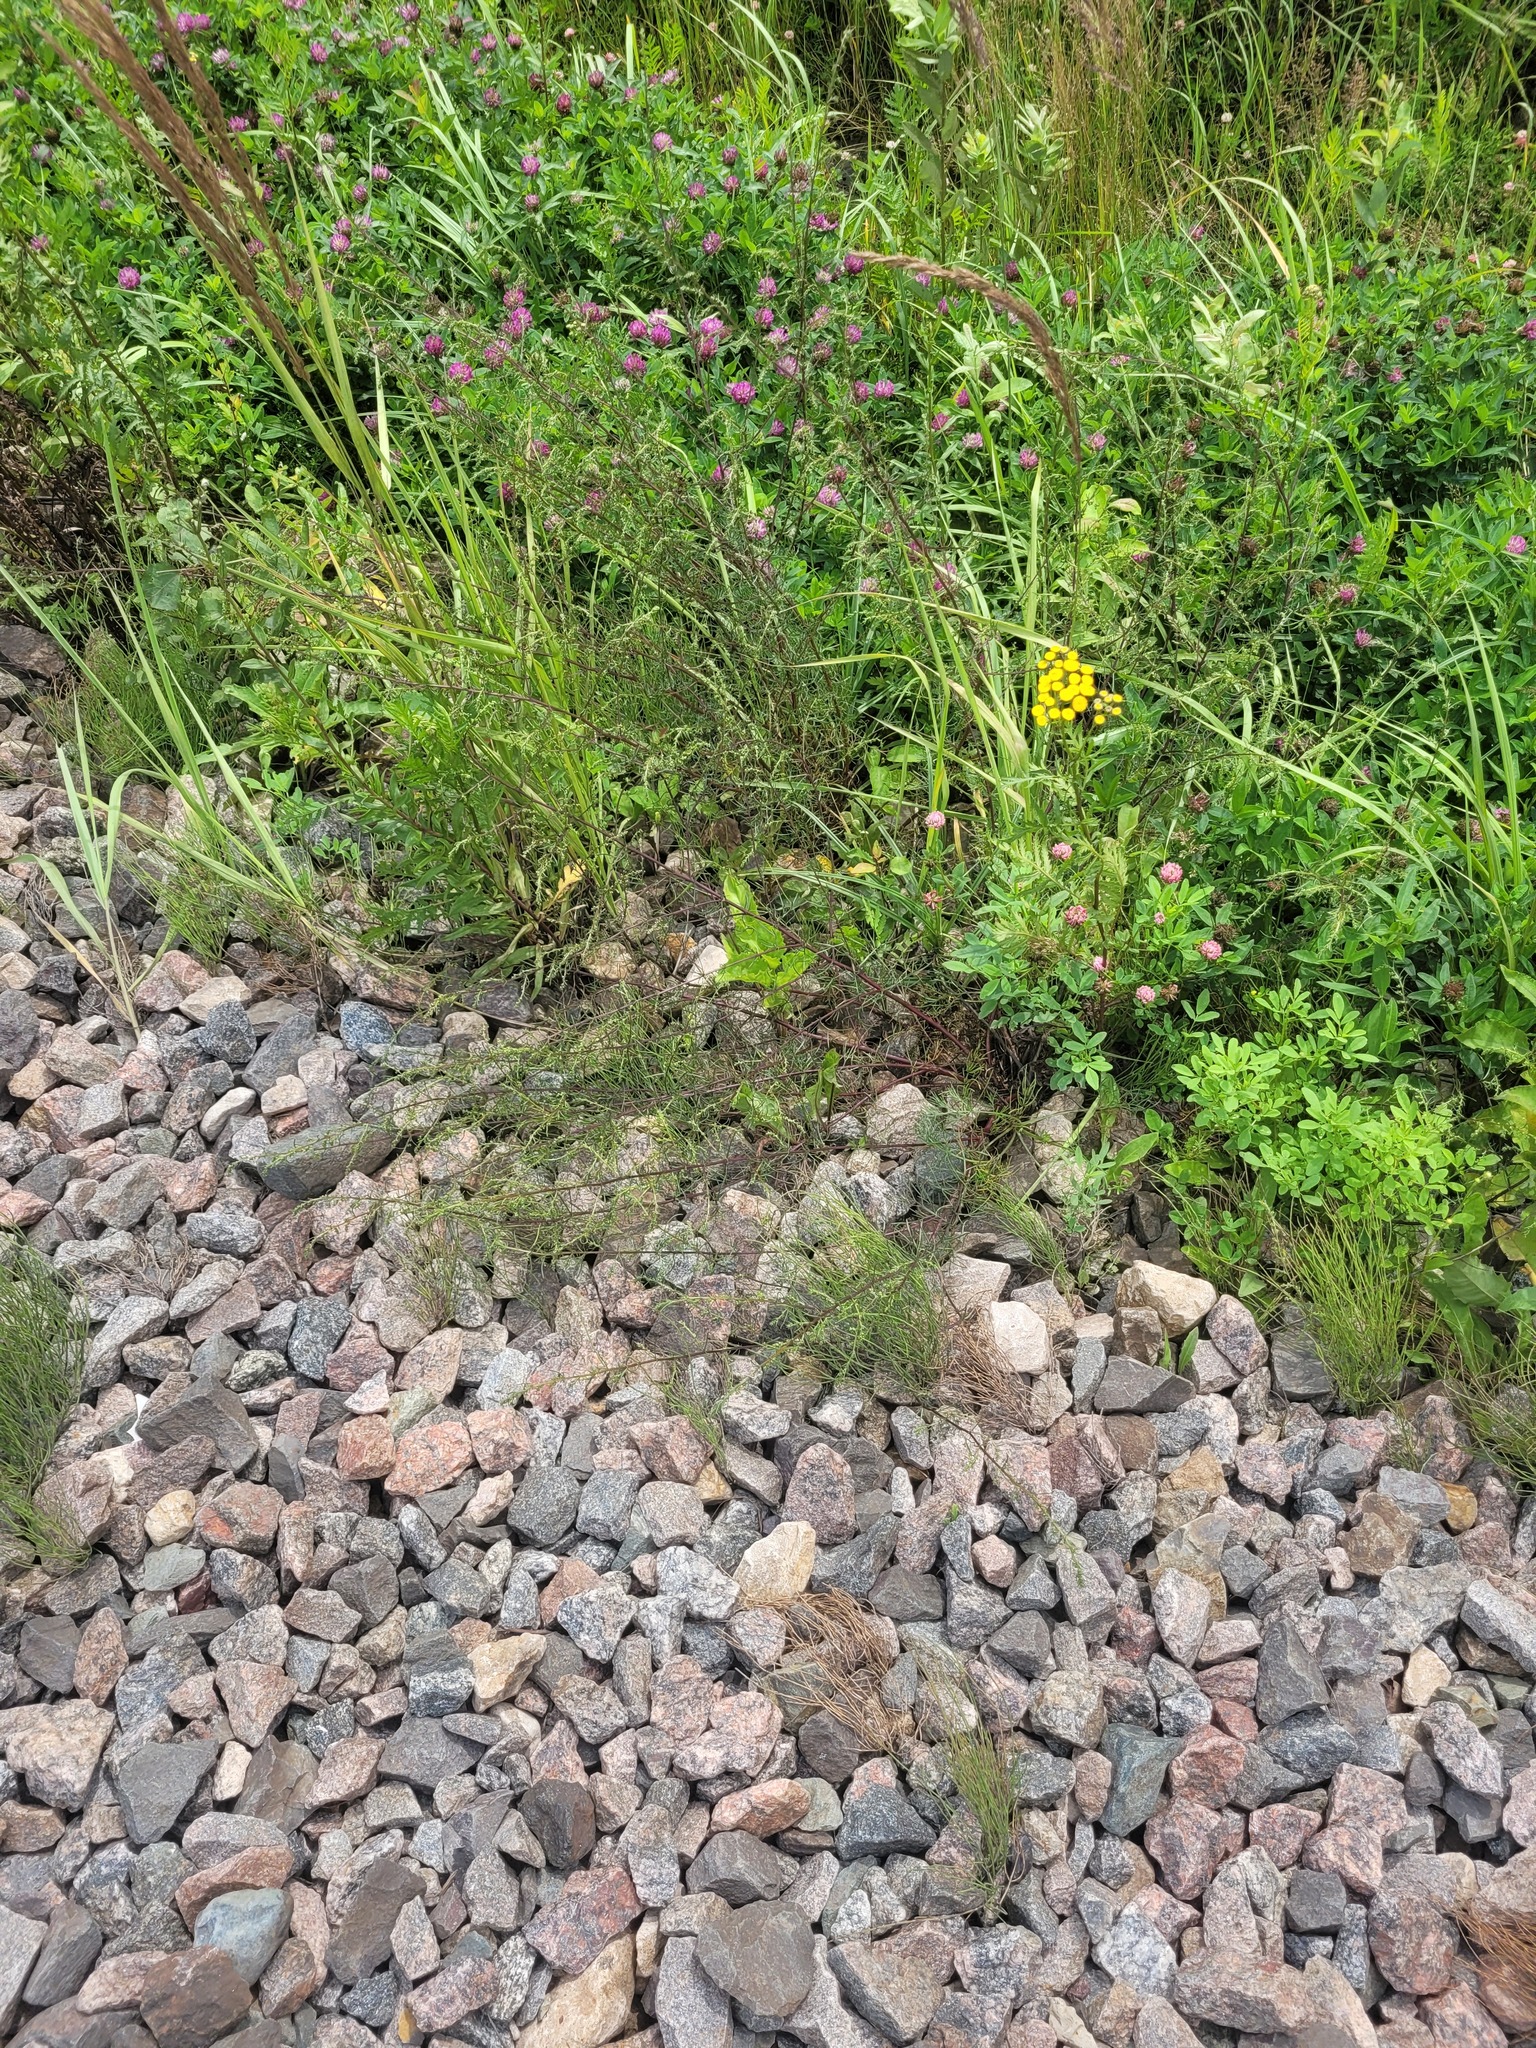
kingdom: Plantae
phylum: Tracheophyta
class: Magnoliopsida
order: Asterales
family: Asteraceae
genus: Artemisia
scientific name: Artemisia campestris
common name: Field wormwood
